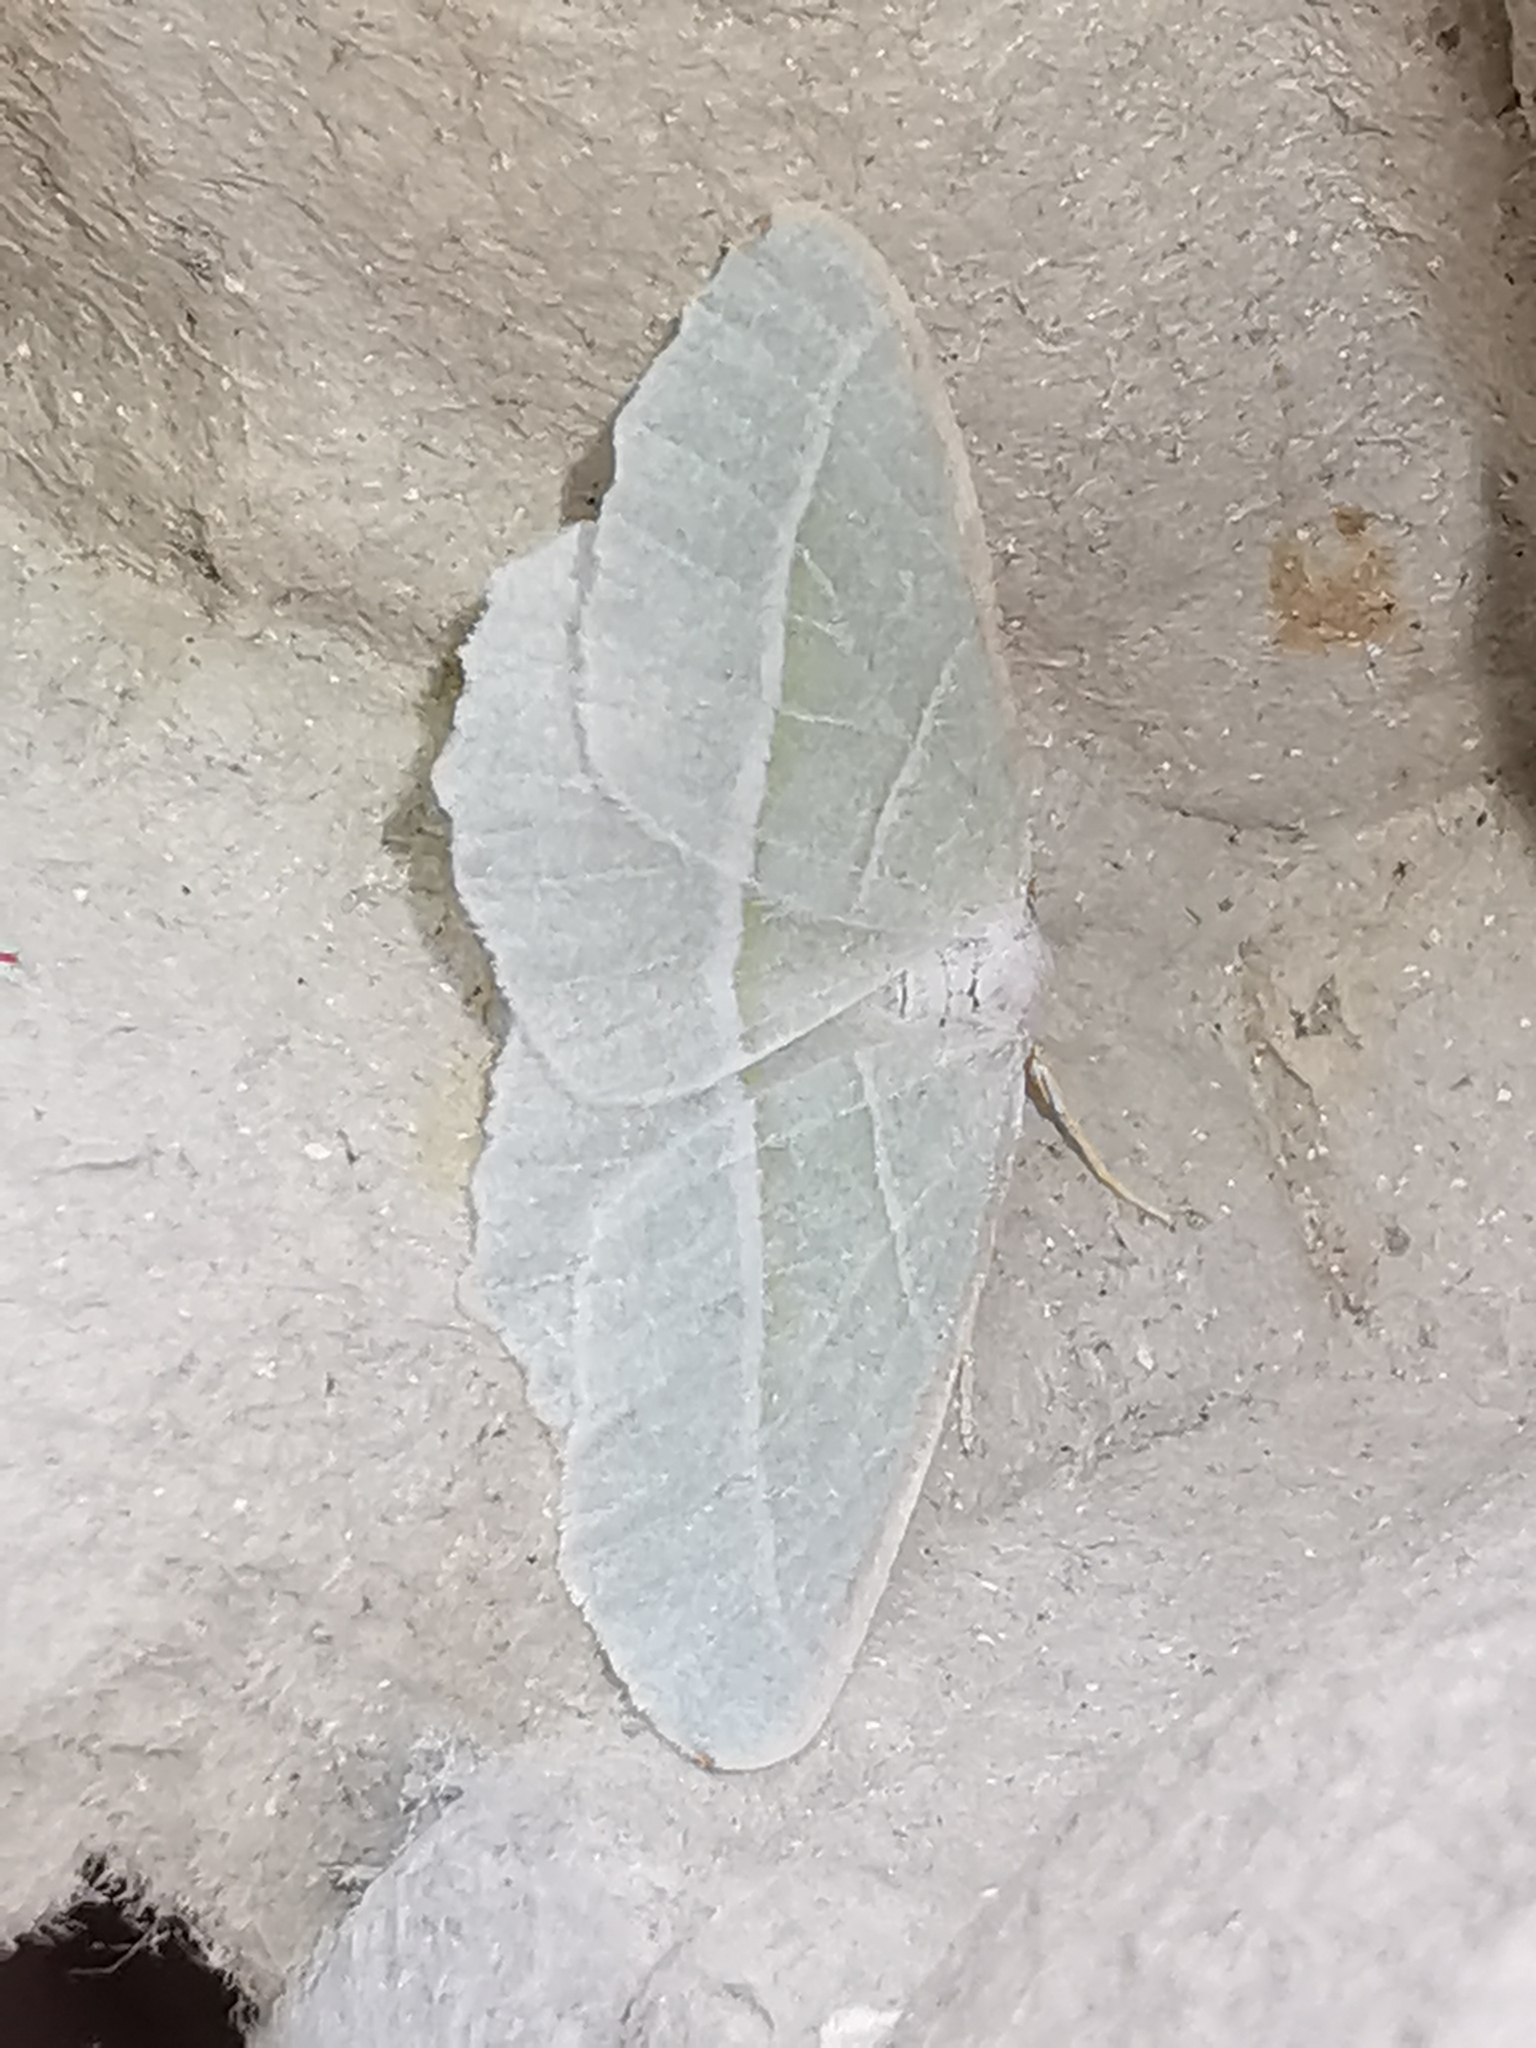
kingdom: Animalia
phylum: Arthropoda
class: Insecta
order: Lepidoptera
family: Geometridae
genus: Campaea
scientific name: Campaea margaritaria
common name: Light emerald
